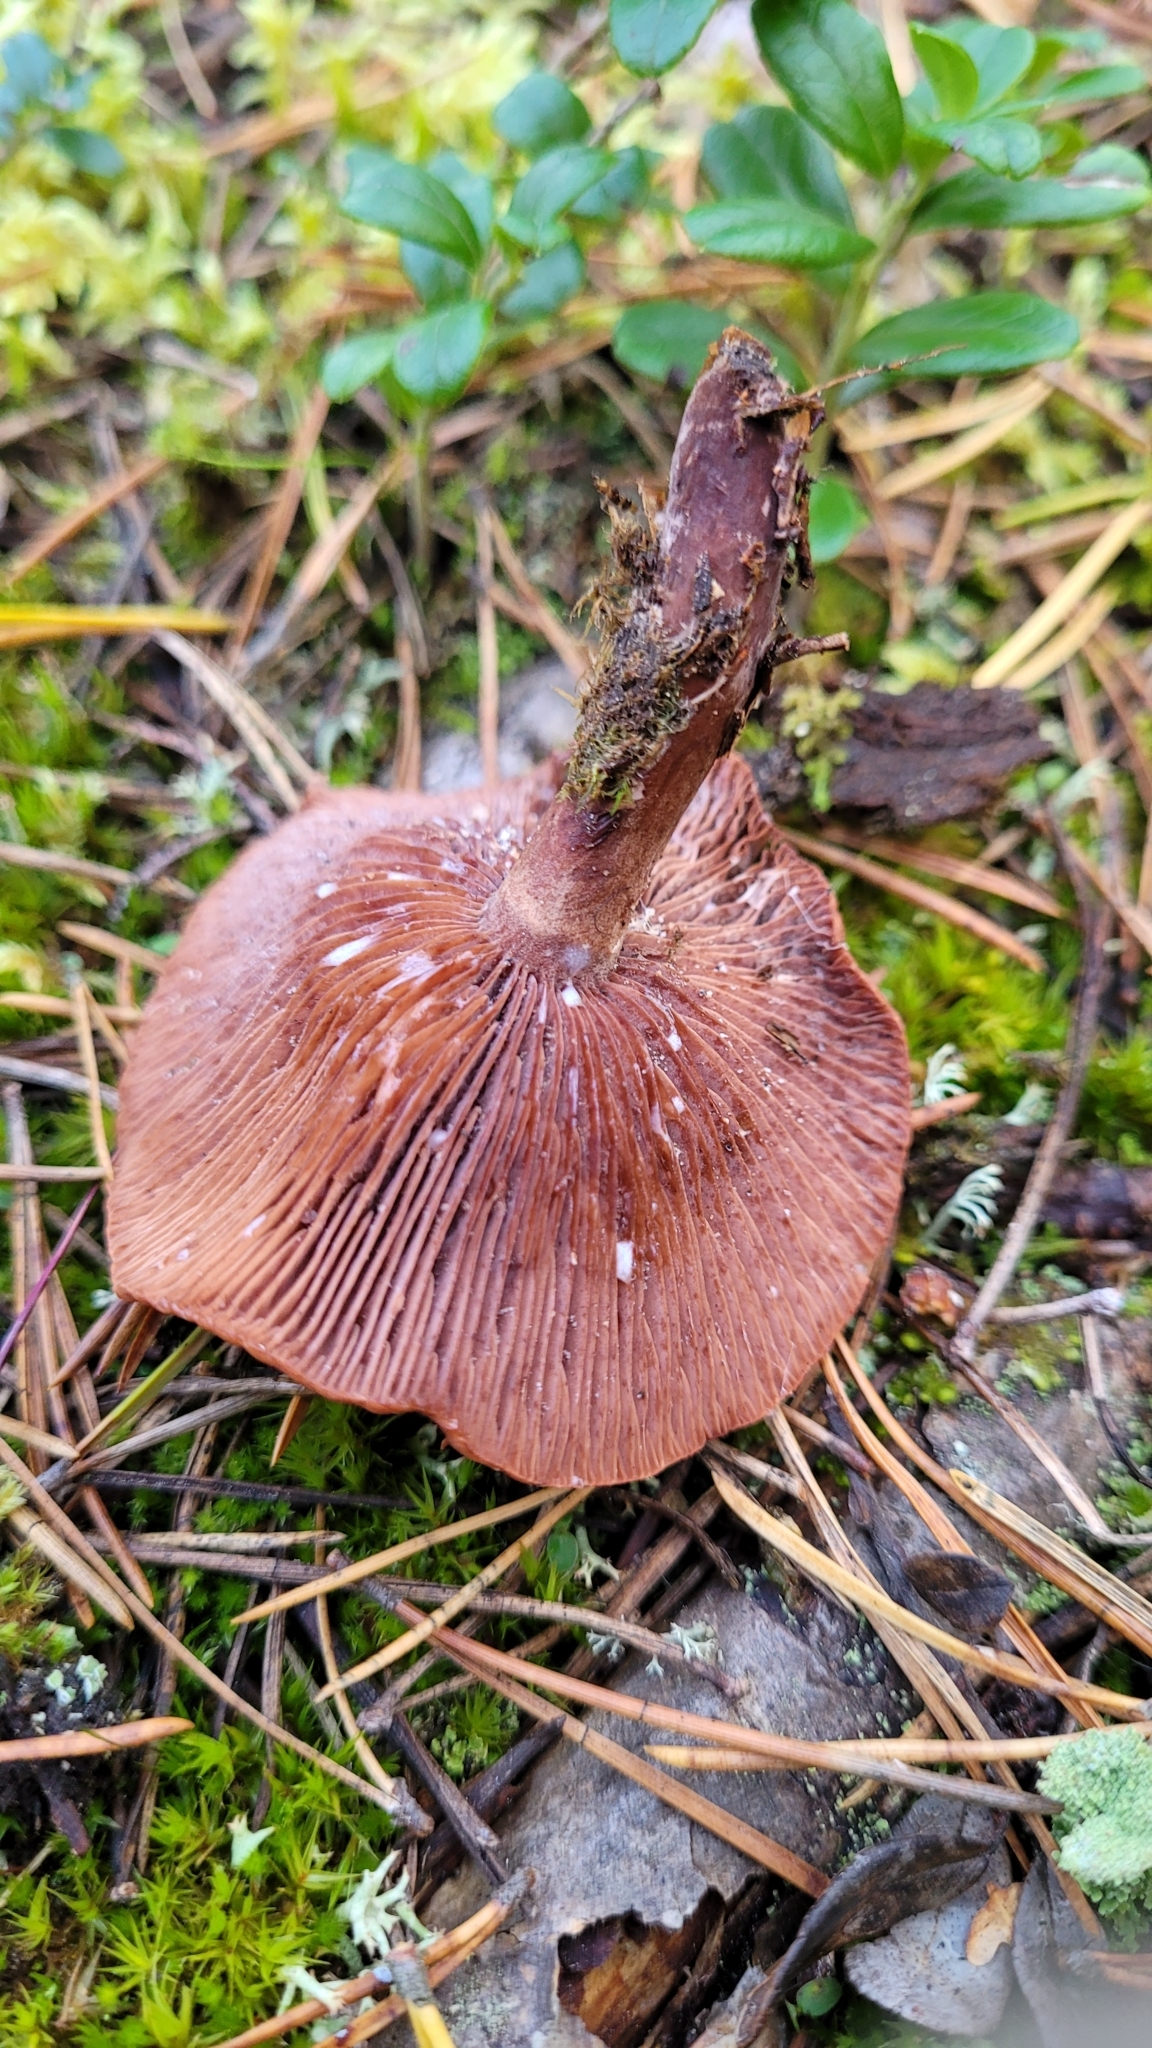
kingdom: Fungi
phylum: Basidiomycota
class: Agaricomycetes
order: Russulales
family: Russulaceae
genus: Lactarius
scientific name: Lactarius camphoratus
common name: Curry milkcap
